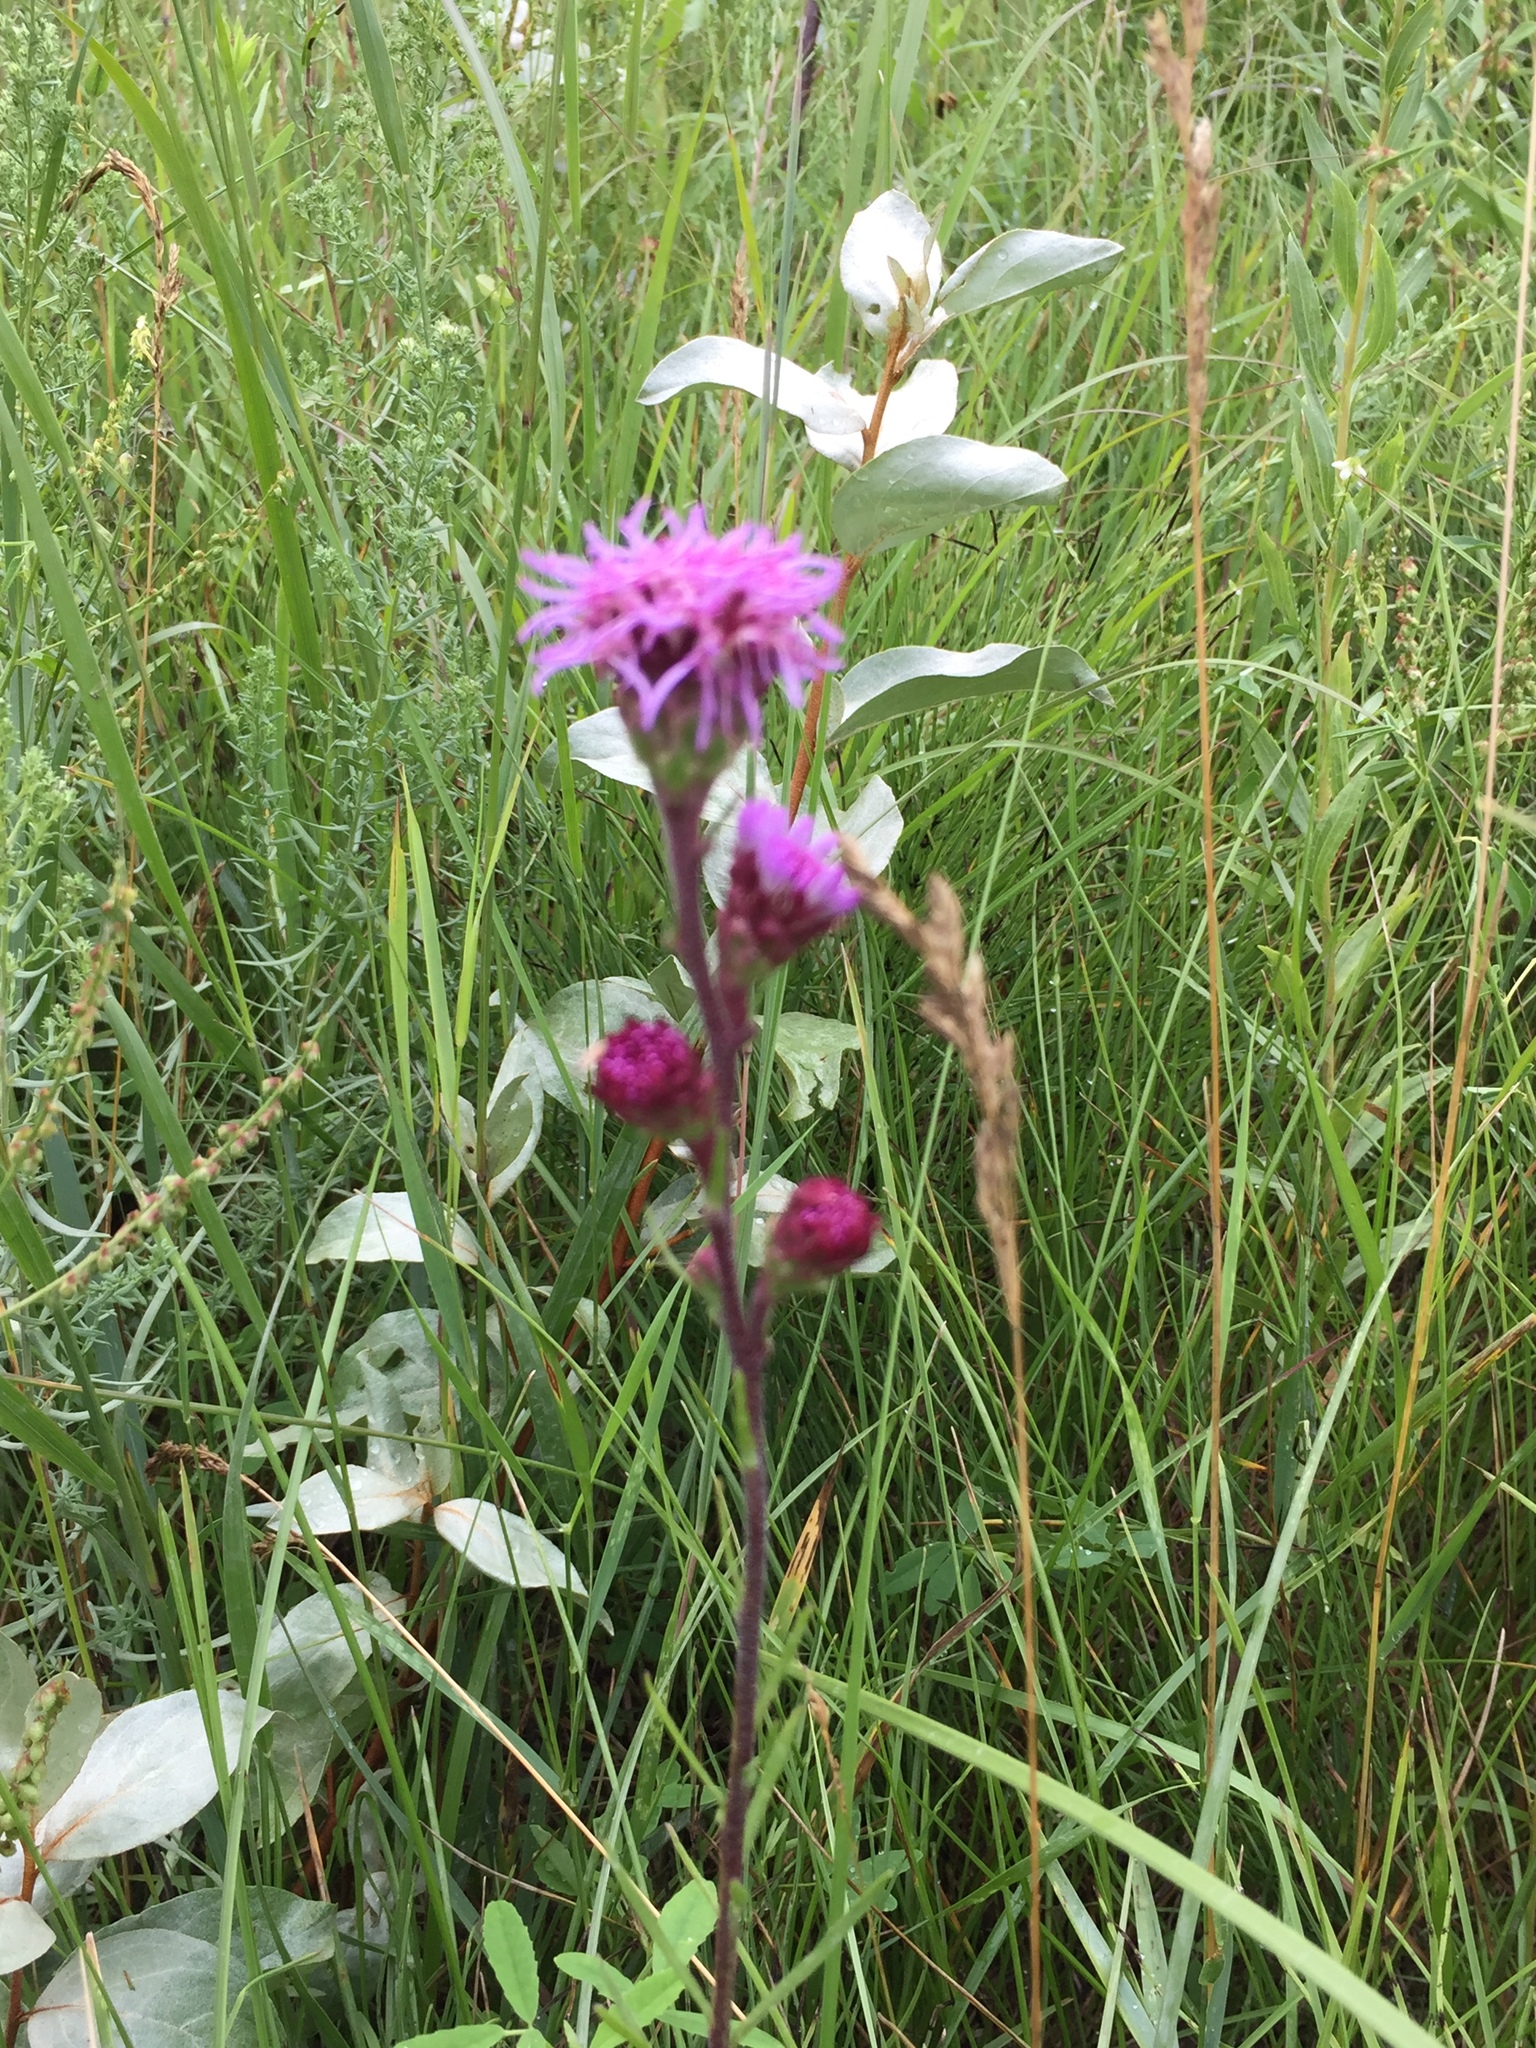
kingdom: Plantae
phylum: Tracheophyta
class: Magnoliopsida
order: Asterales
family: Asteraceae
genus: Liatris
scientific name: Liatris ligulistylis
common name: Northern plains gayfeather
